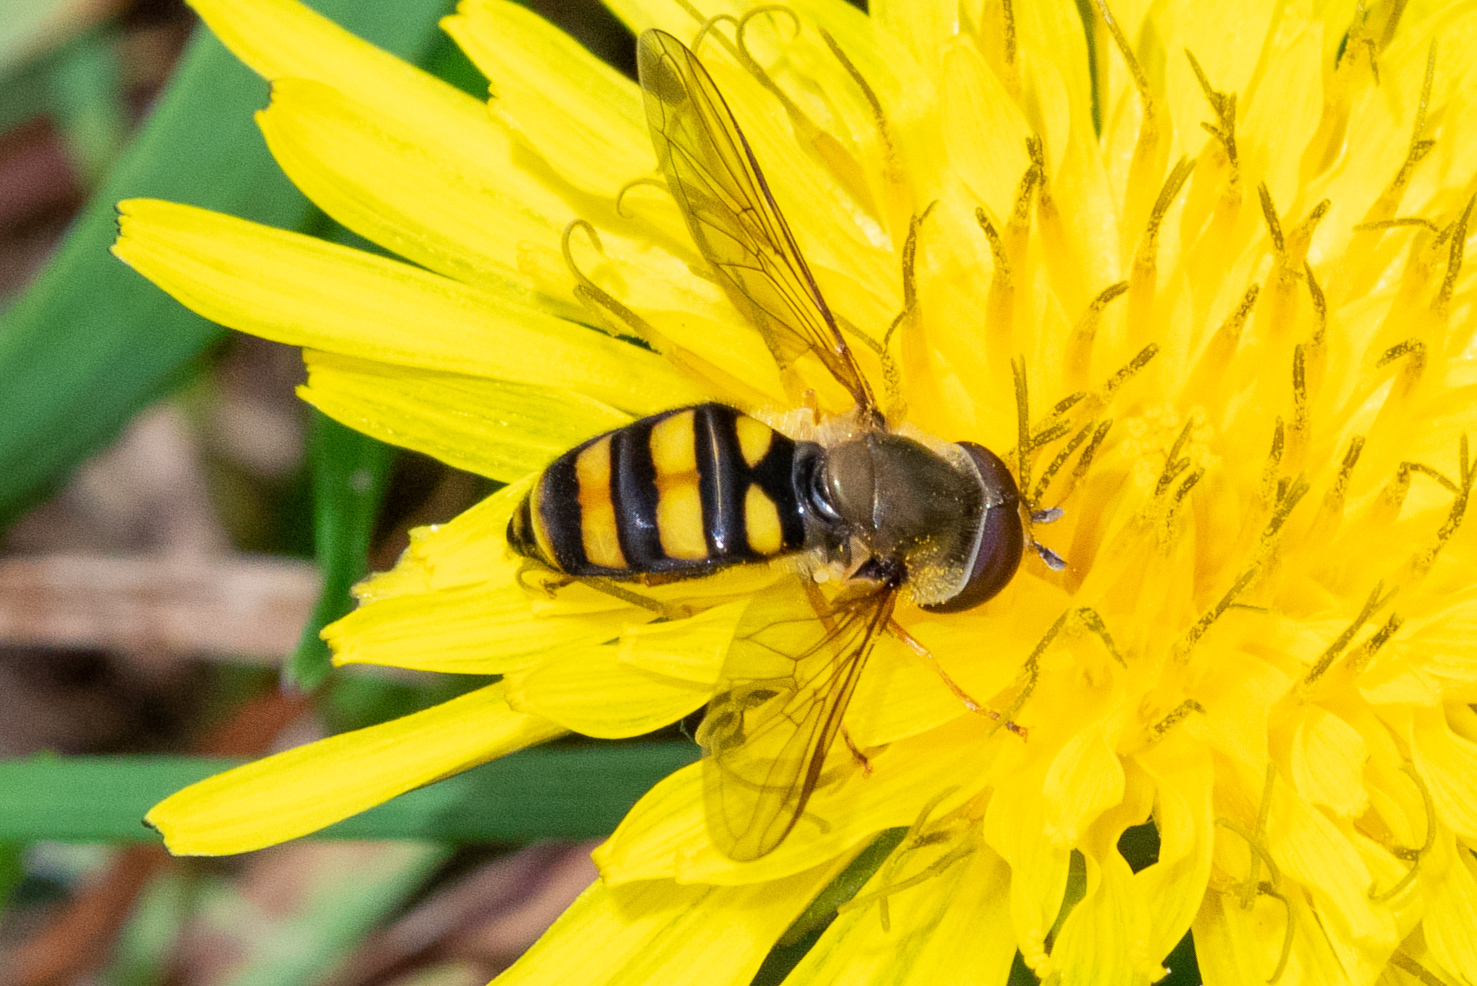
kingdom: Animalia
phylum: Arthropoda
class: Insecta
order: Diptera
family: Syrphidae
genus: Eupeodes
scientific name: Eupeodes
